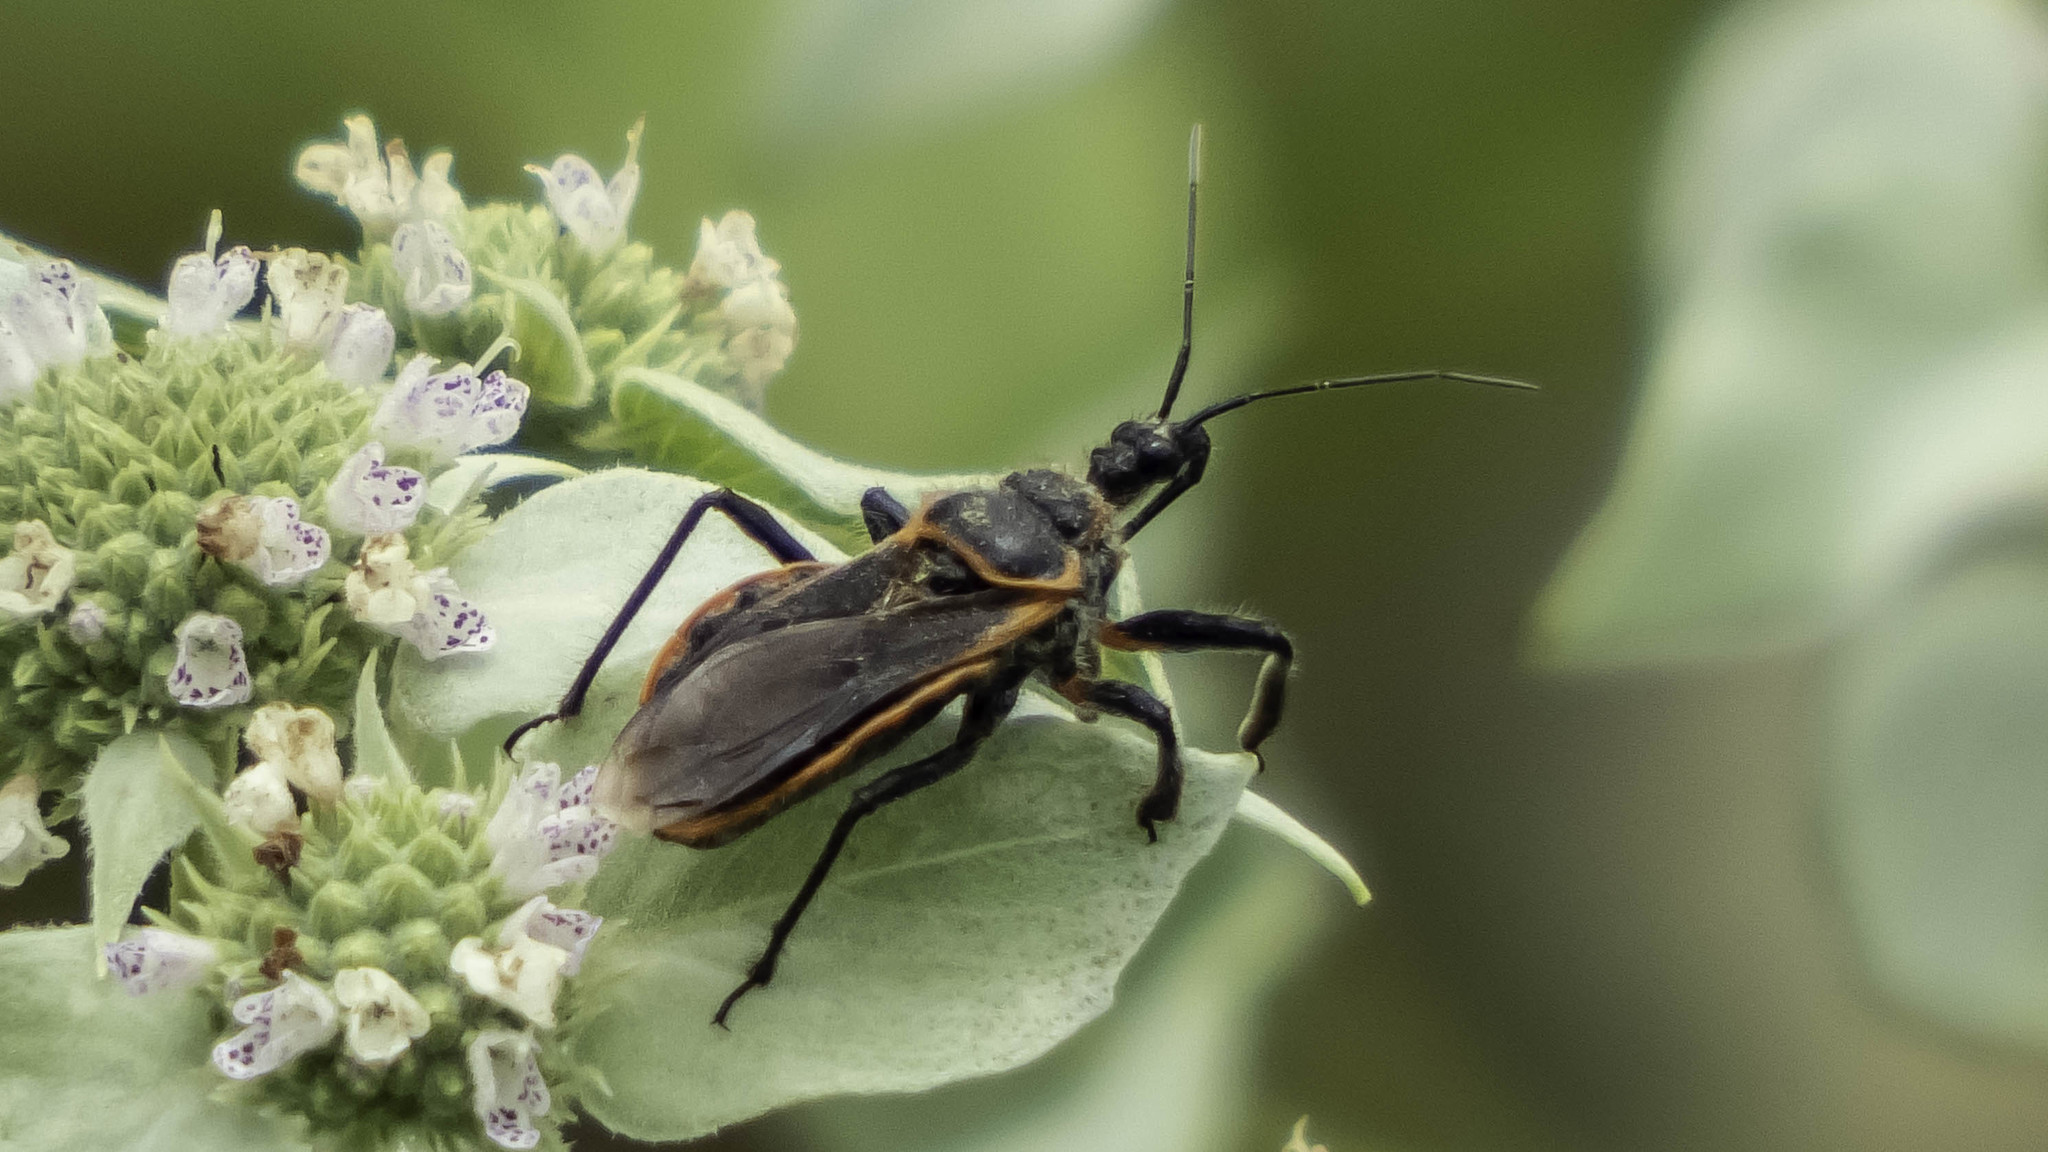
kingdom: Animalia
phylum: Arthropoda
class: Insecta
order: Hemiptera
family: Reduviidae
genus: Apiomerus
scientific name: Apiomerus crassipes
